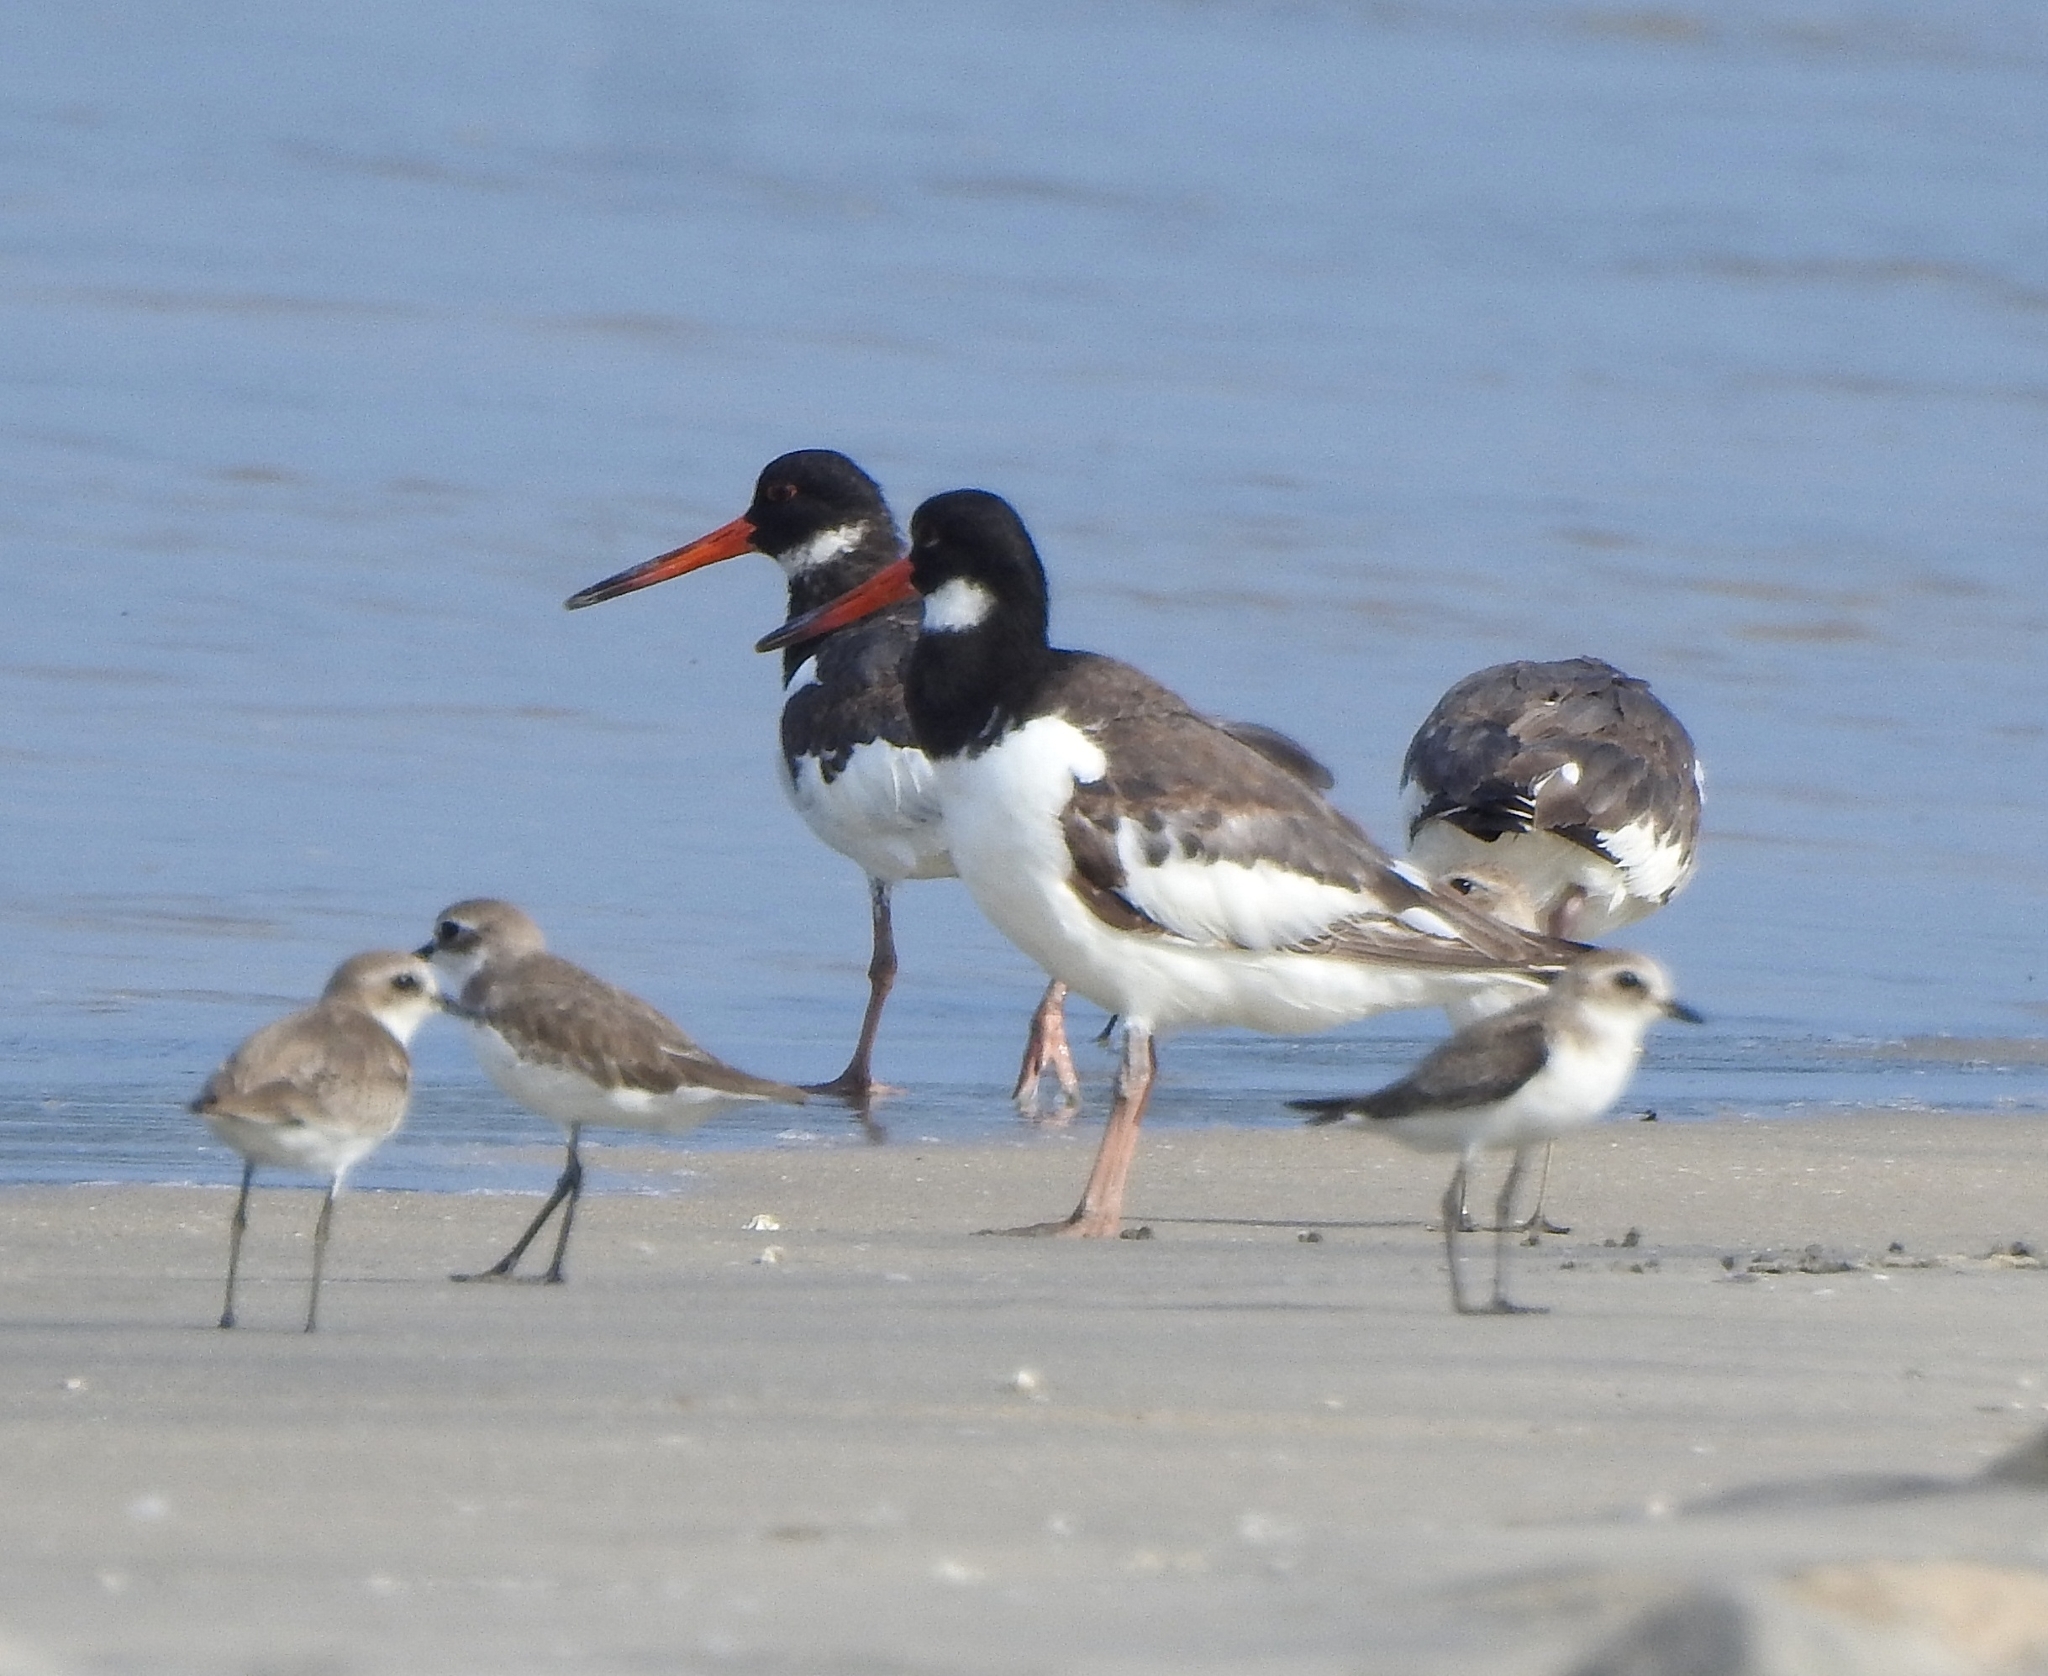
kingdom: Animalia
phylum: Chordata
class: Aves
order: Charadriiformes
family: Haematopodidae
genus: Haematopus
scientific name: Haematopus ostralegus
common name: Eurasian oystercatcher
